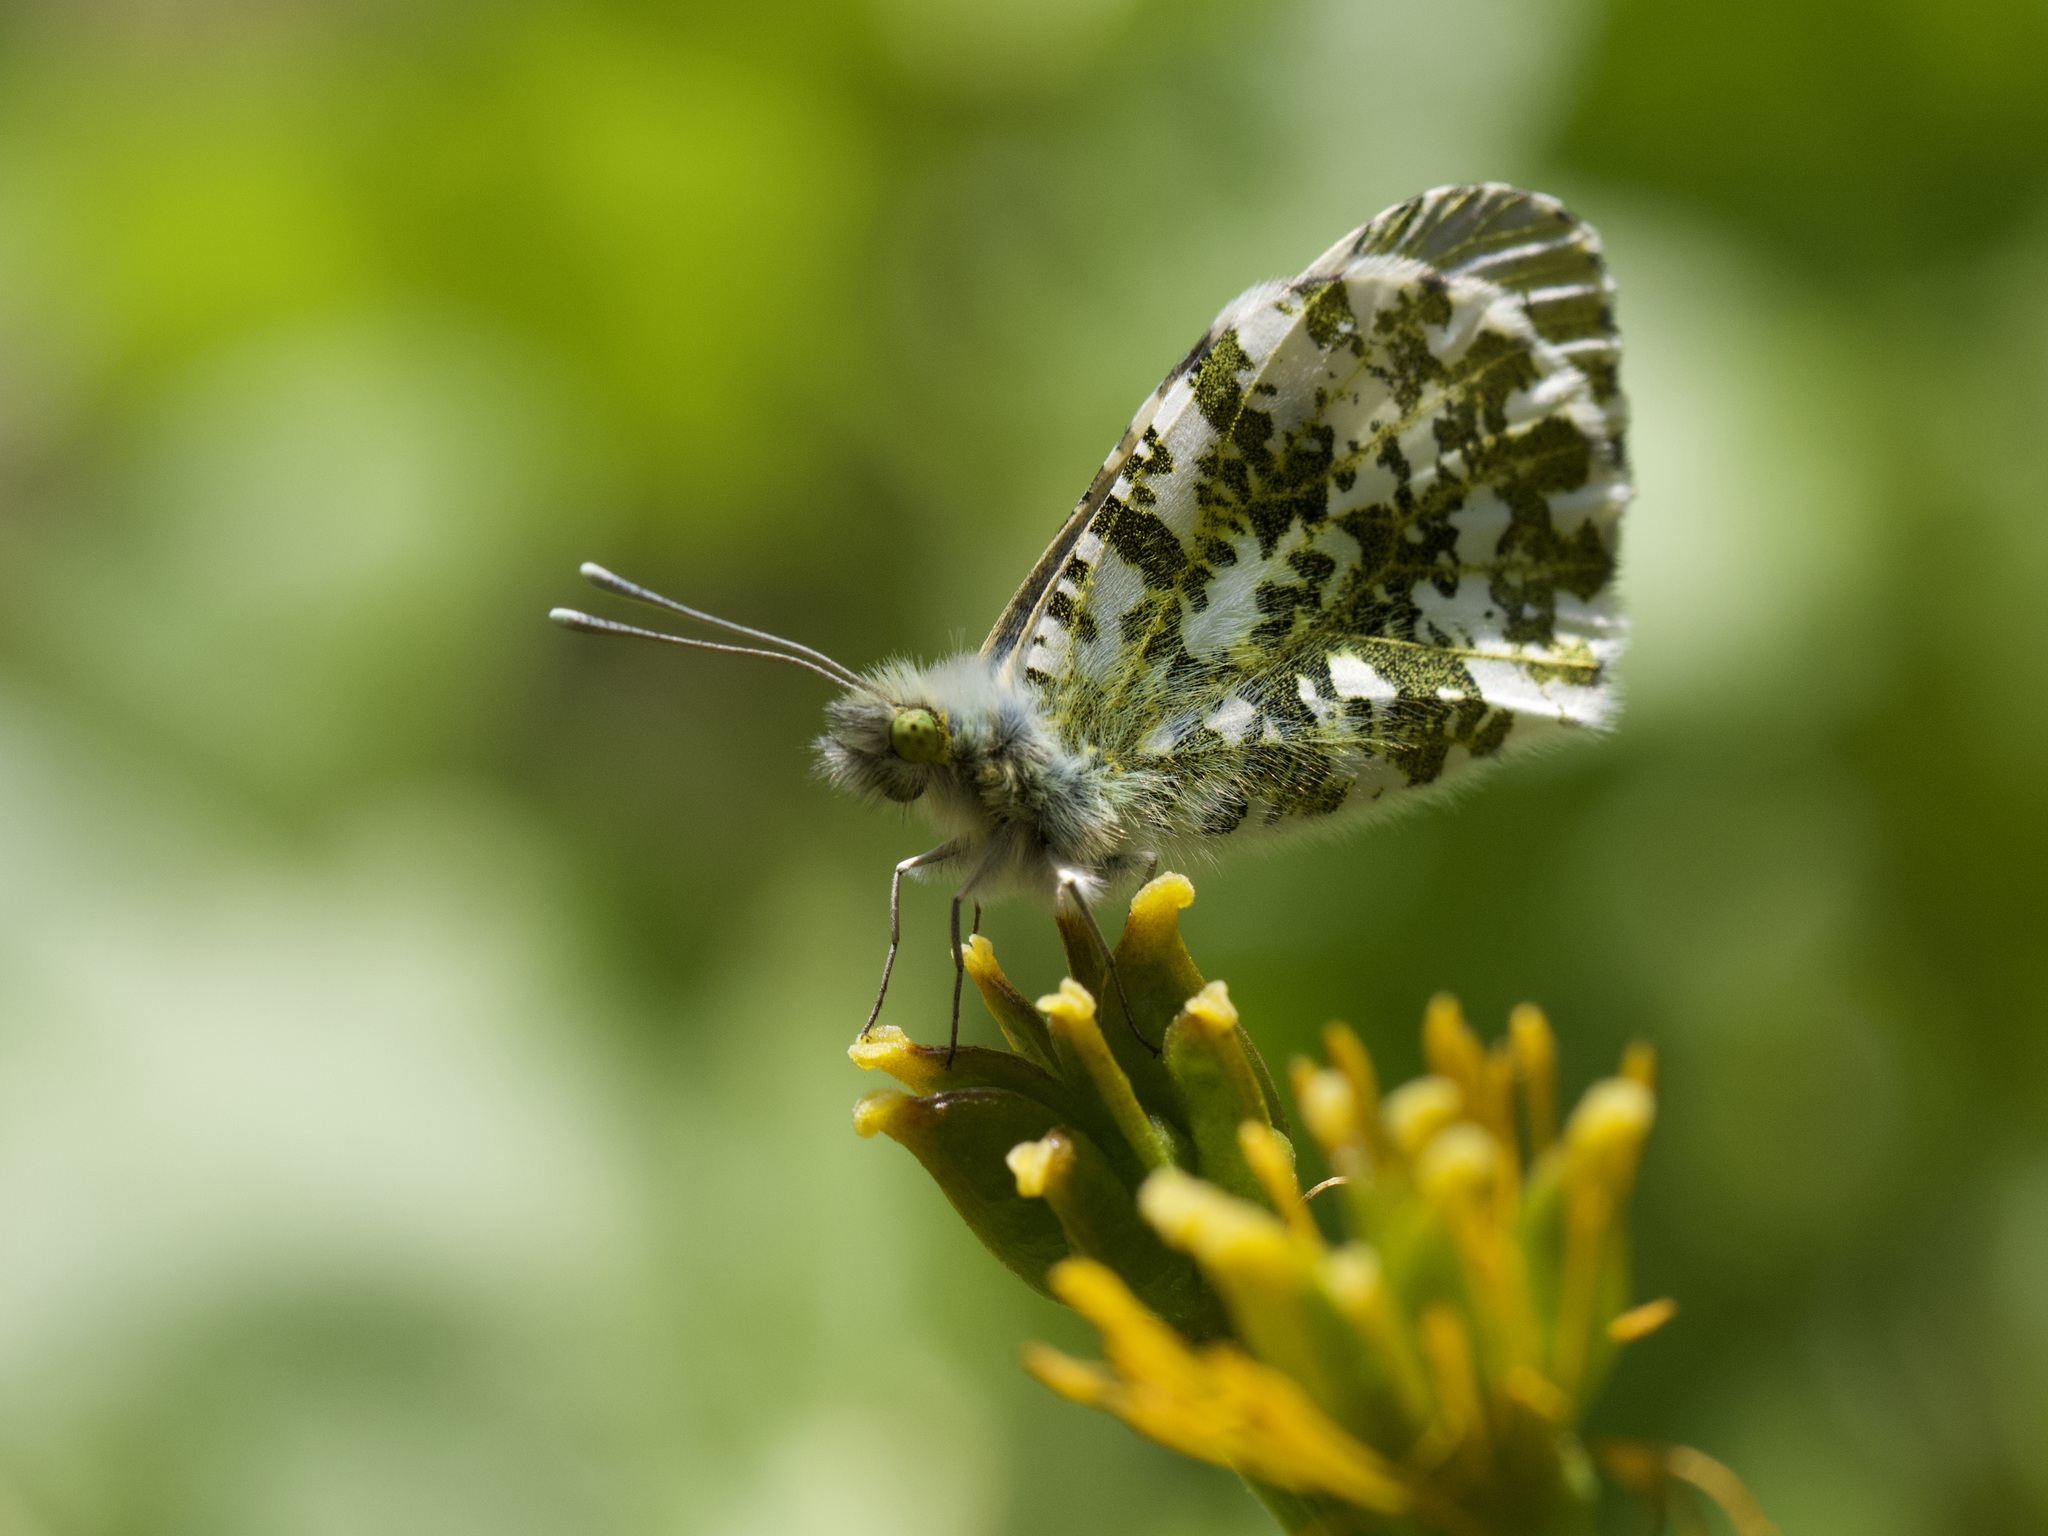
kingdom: Animalia
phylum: Arthropoda
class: Insecta
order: Lepidoptera
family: Pieridae
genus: Anthocharis
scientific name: Anthocharis cardamines
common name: Orange-tip
